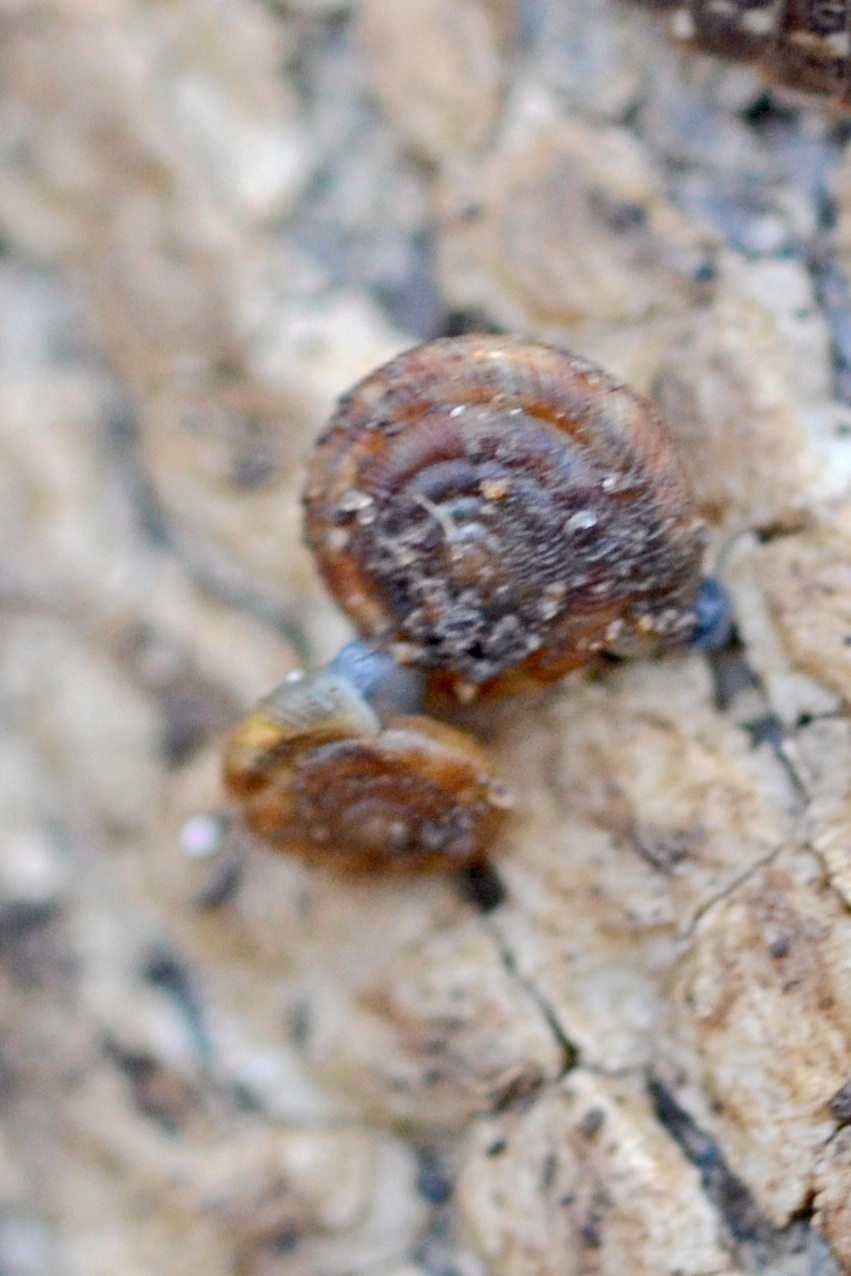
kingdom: Animalia
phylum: Mollusca
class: Gastropoda
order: Stylommatophora
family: Discidae
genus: Discus
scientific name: Discus rotundatus
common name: Rounded snail
